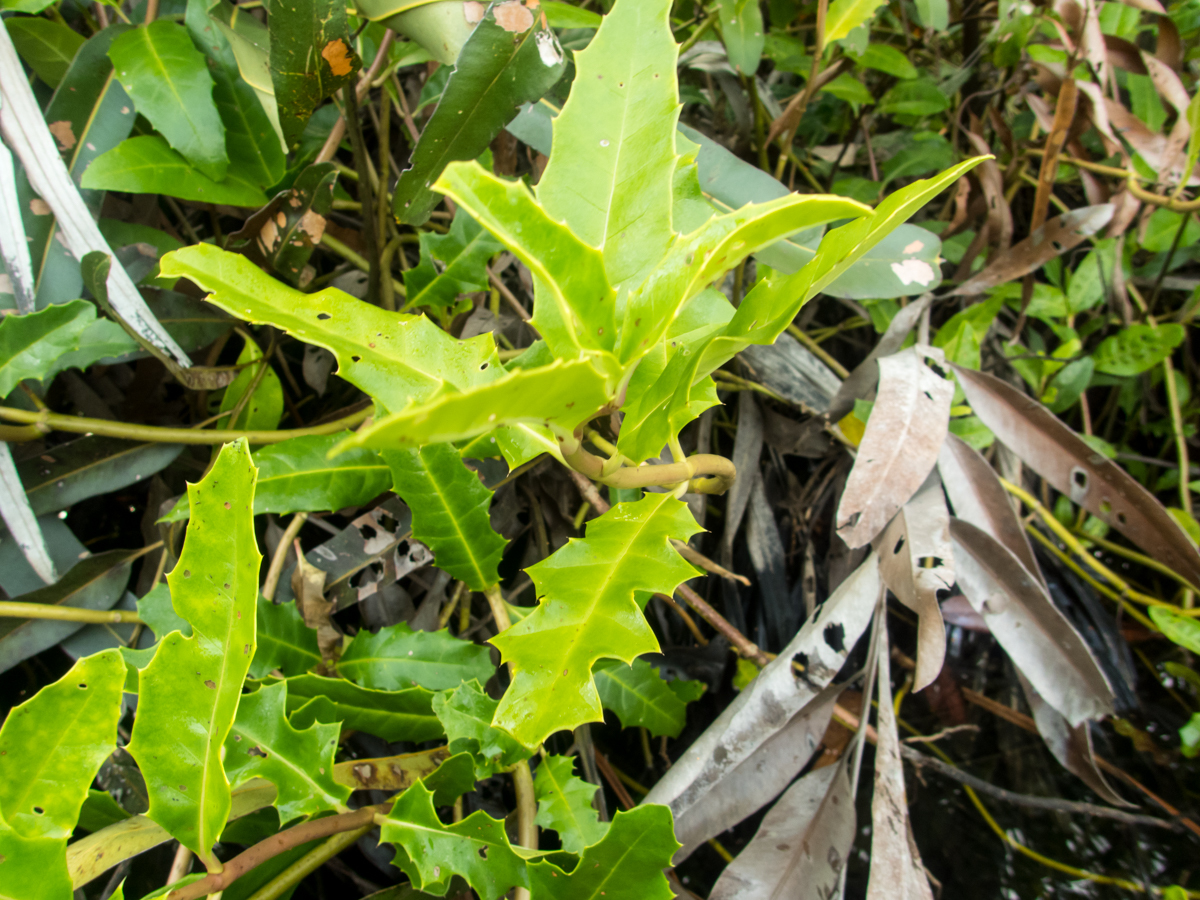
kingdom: Plantae
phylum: Tracheophyta
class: Magnoliopsida
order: Lamiales
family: Acanthaceae
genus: Acanthus
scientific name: Acanthus ebracteatus
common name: Acanthus
